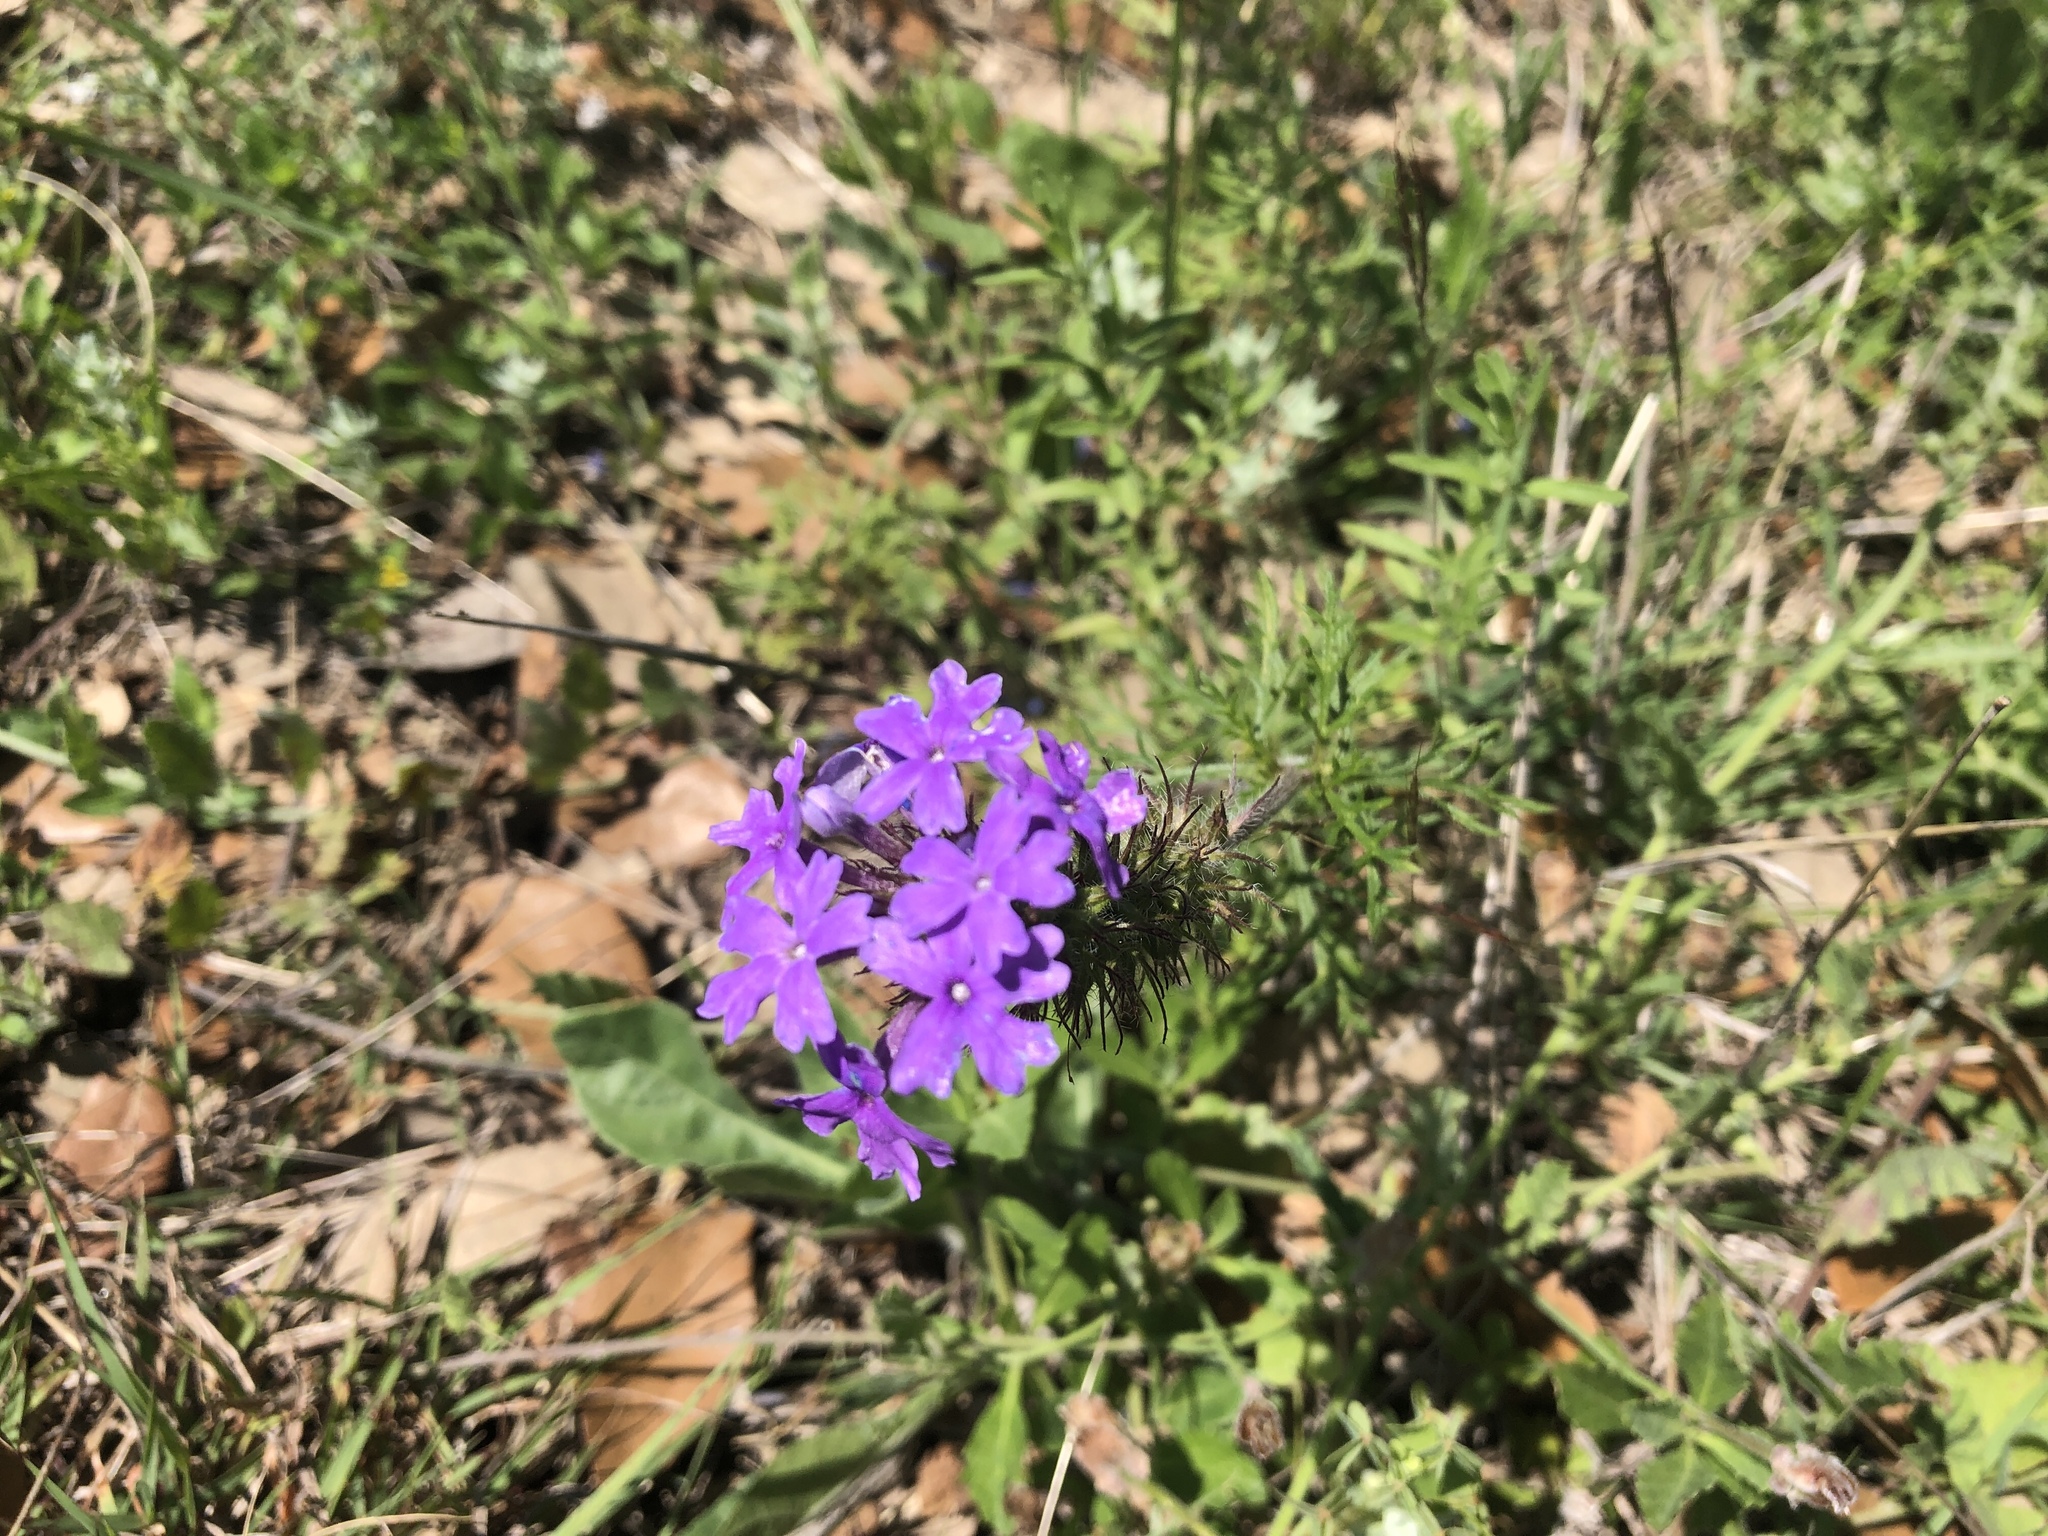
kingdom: Plantae
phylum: Tracheophyta
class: Magnoliopsida
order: Lamiales
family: Verbenaceae
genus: Verbena
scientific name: Verbena bipinnatifida
